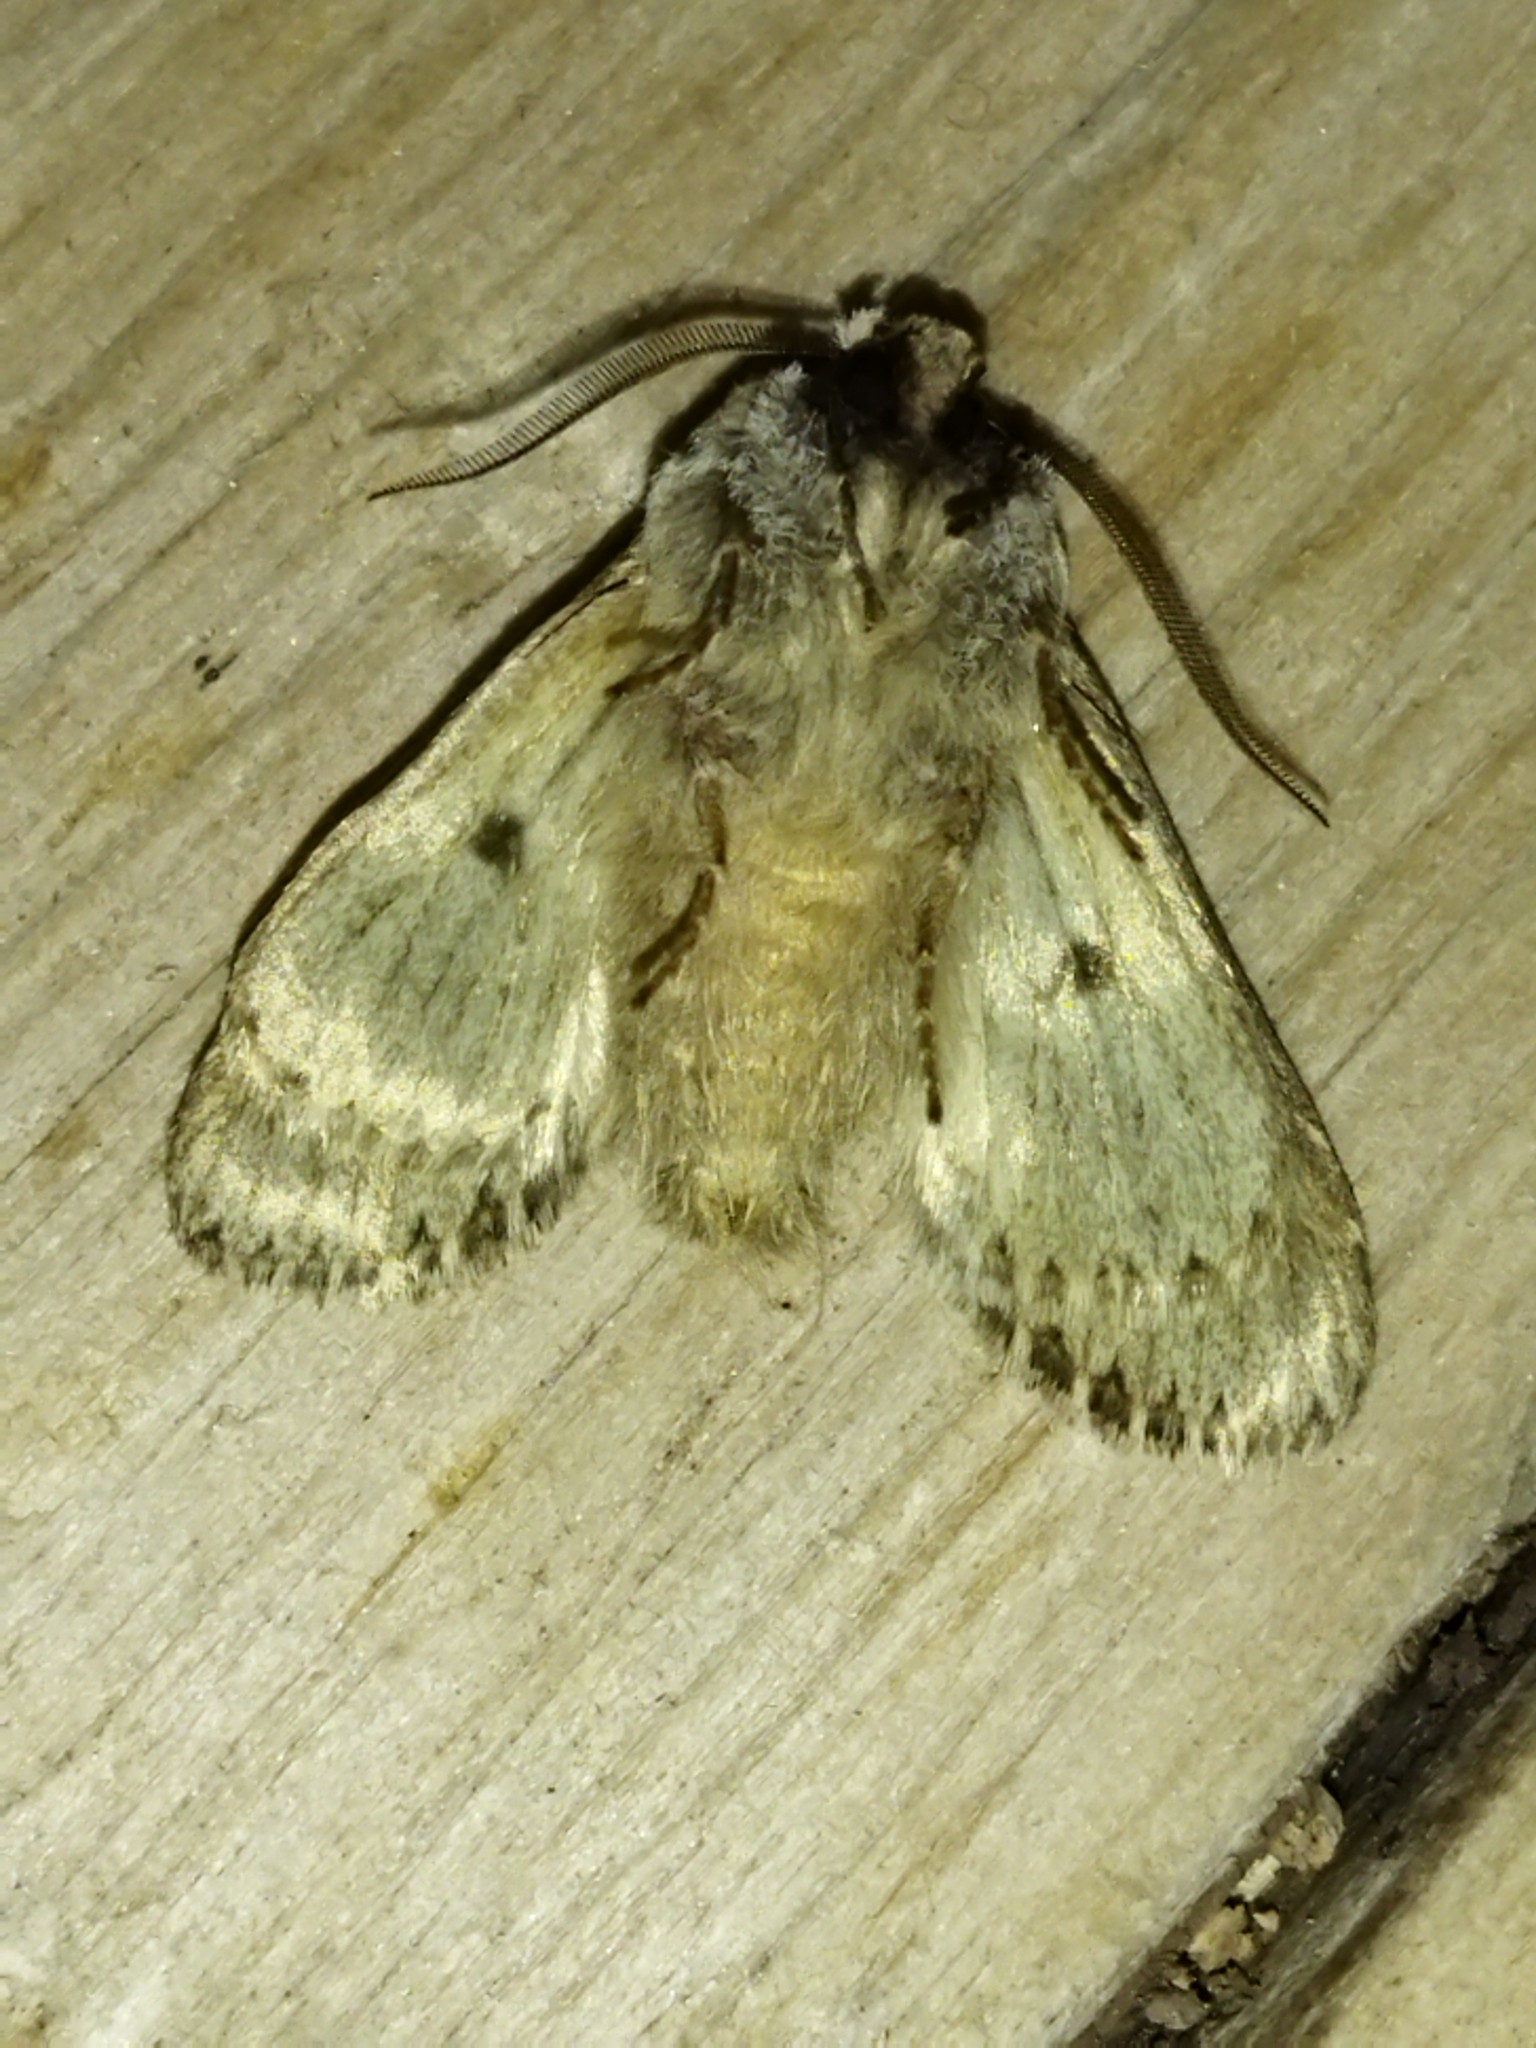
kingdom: Animalia
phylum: Arthropoda
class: Insecta
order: Lepidoptera
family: Noctuidae
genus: Asteroscopus
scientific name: Asteroscopus sphinx
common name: The sprawler
